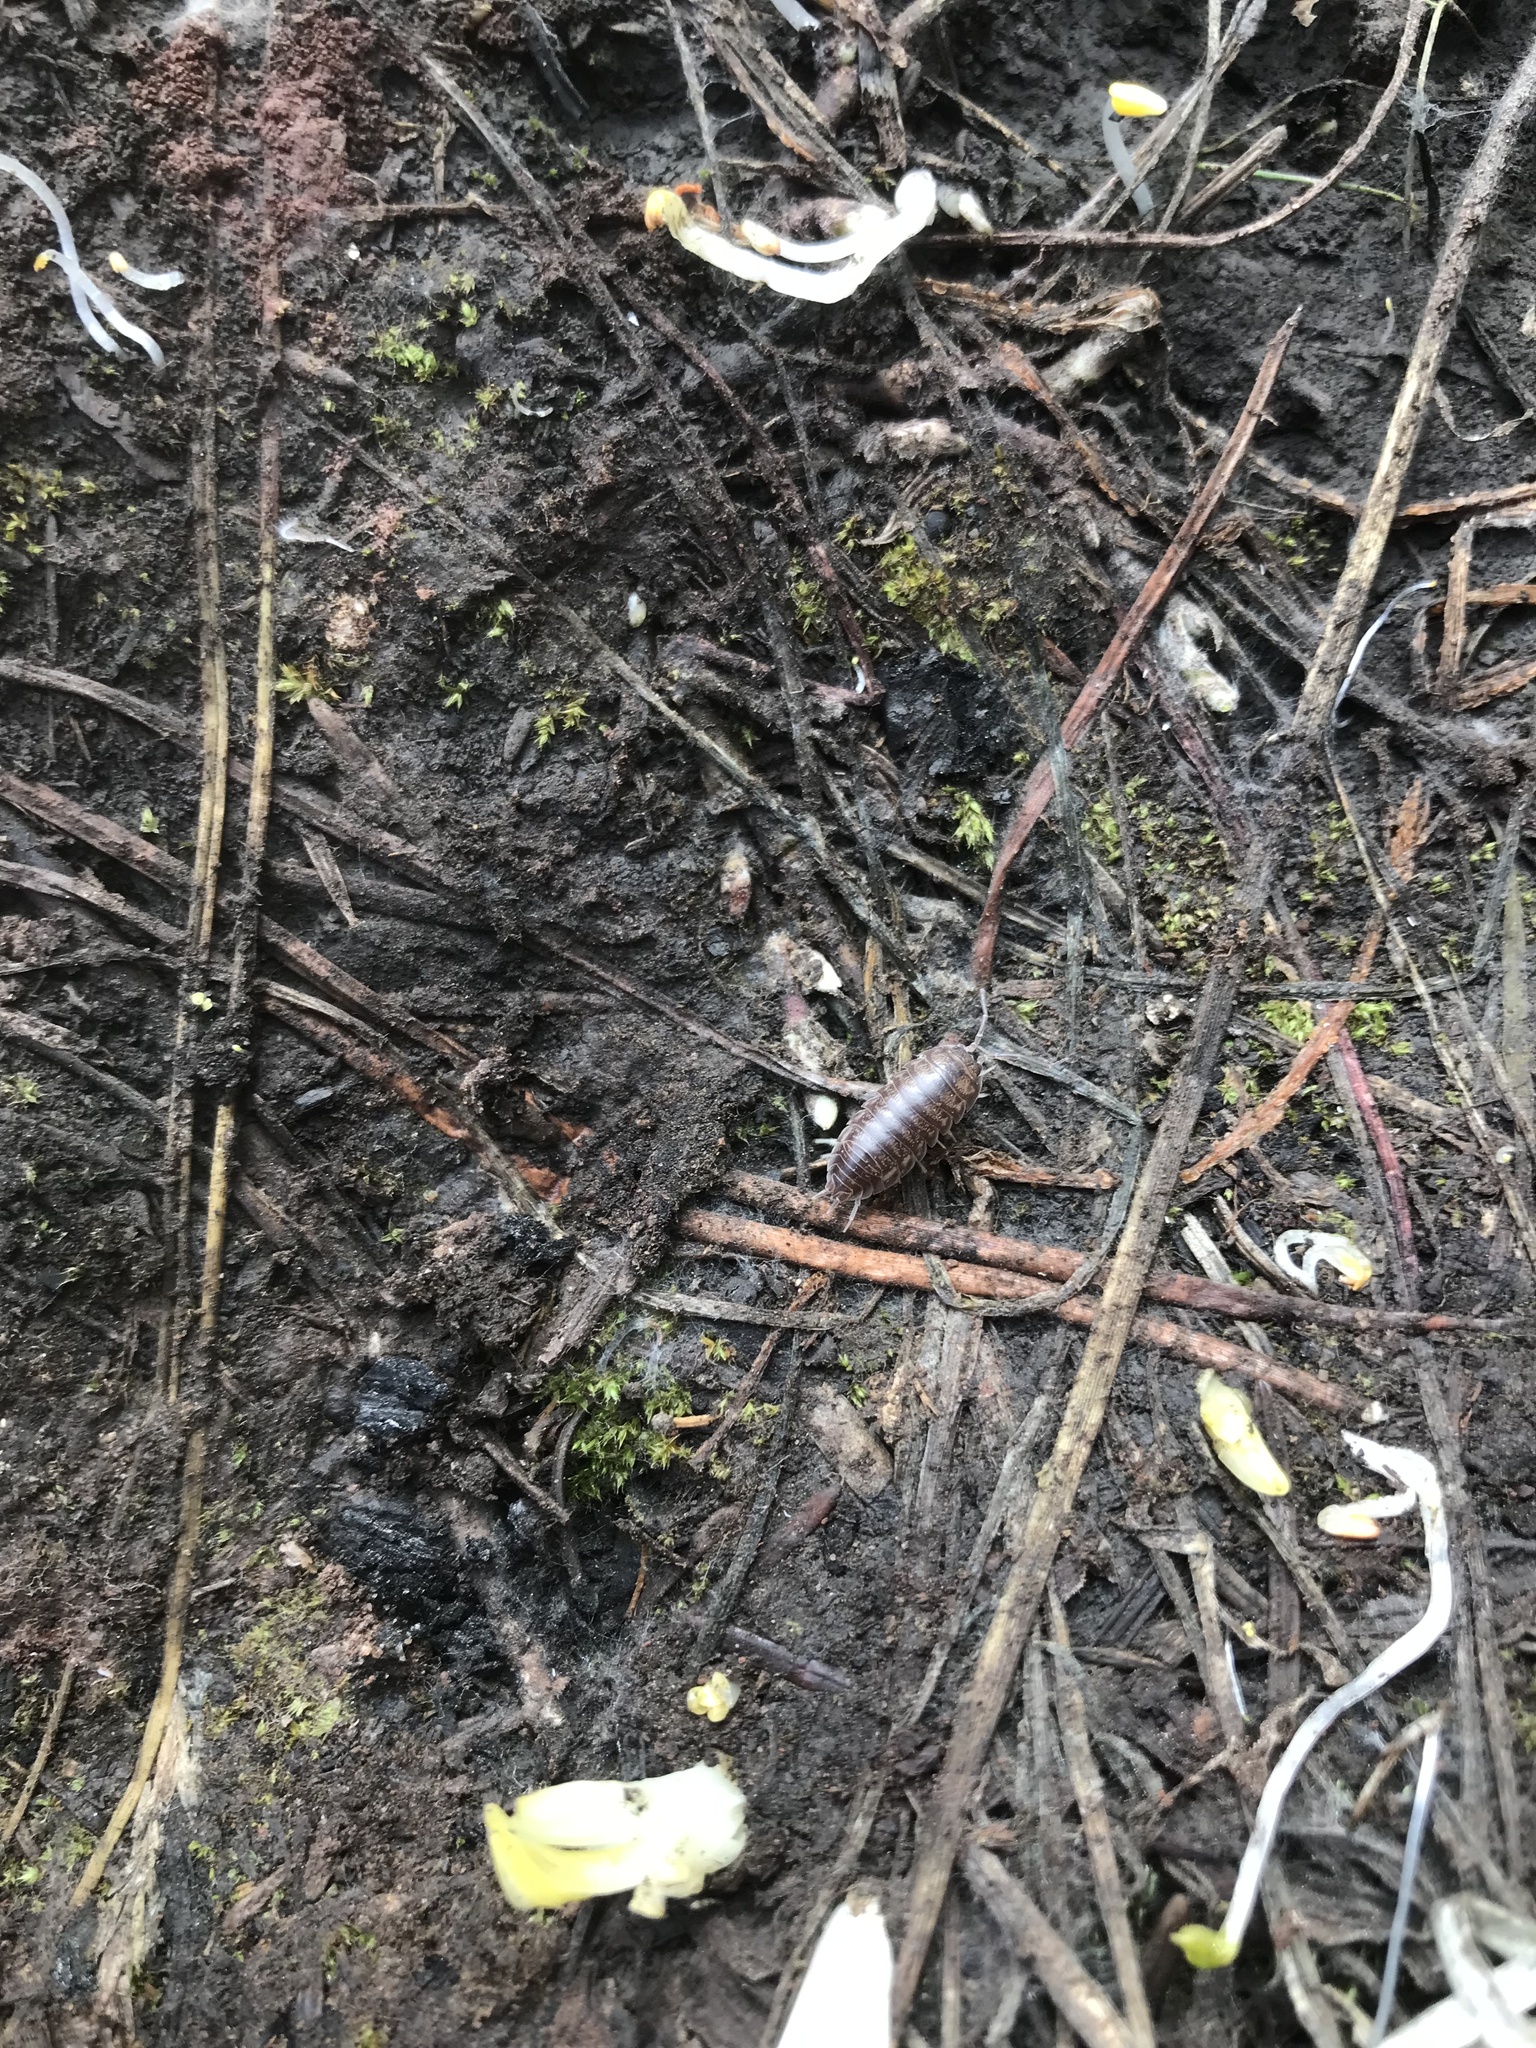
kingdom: Animalia
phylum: Arthropoda
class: Malacostraca
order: Isopoda
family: Cylisticidae
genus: Cylisticus
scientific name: Cylisticus convexus
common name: Curly woodlouse
